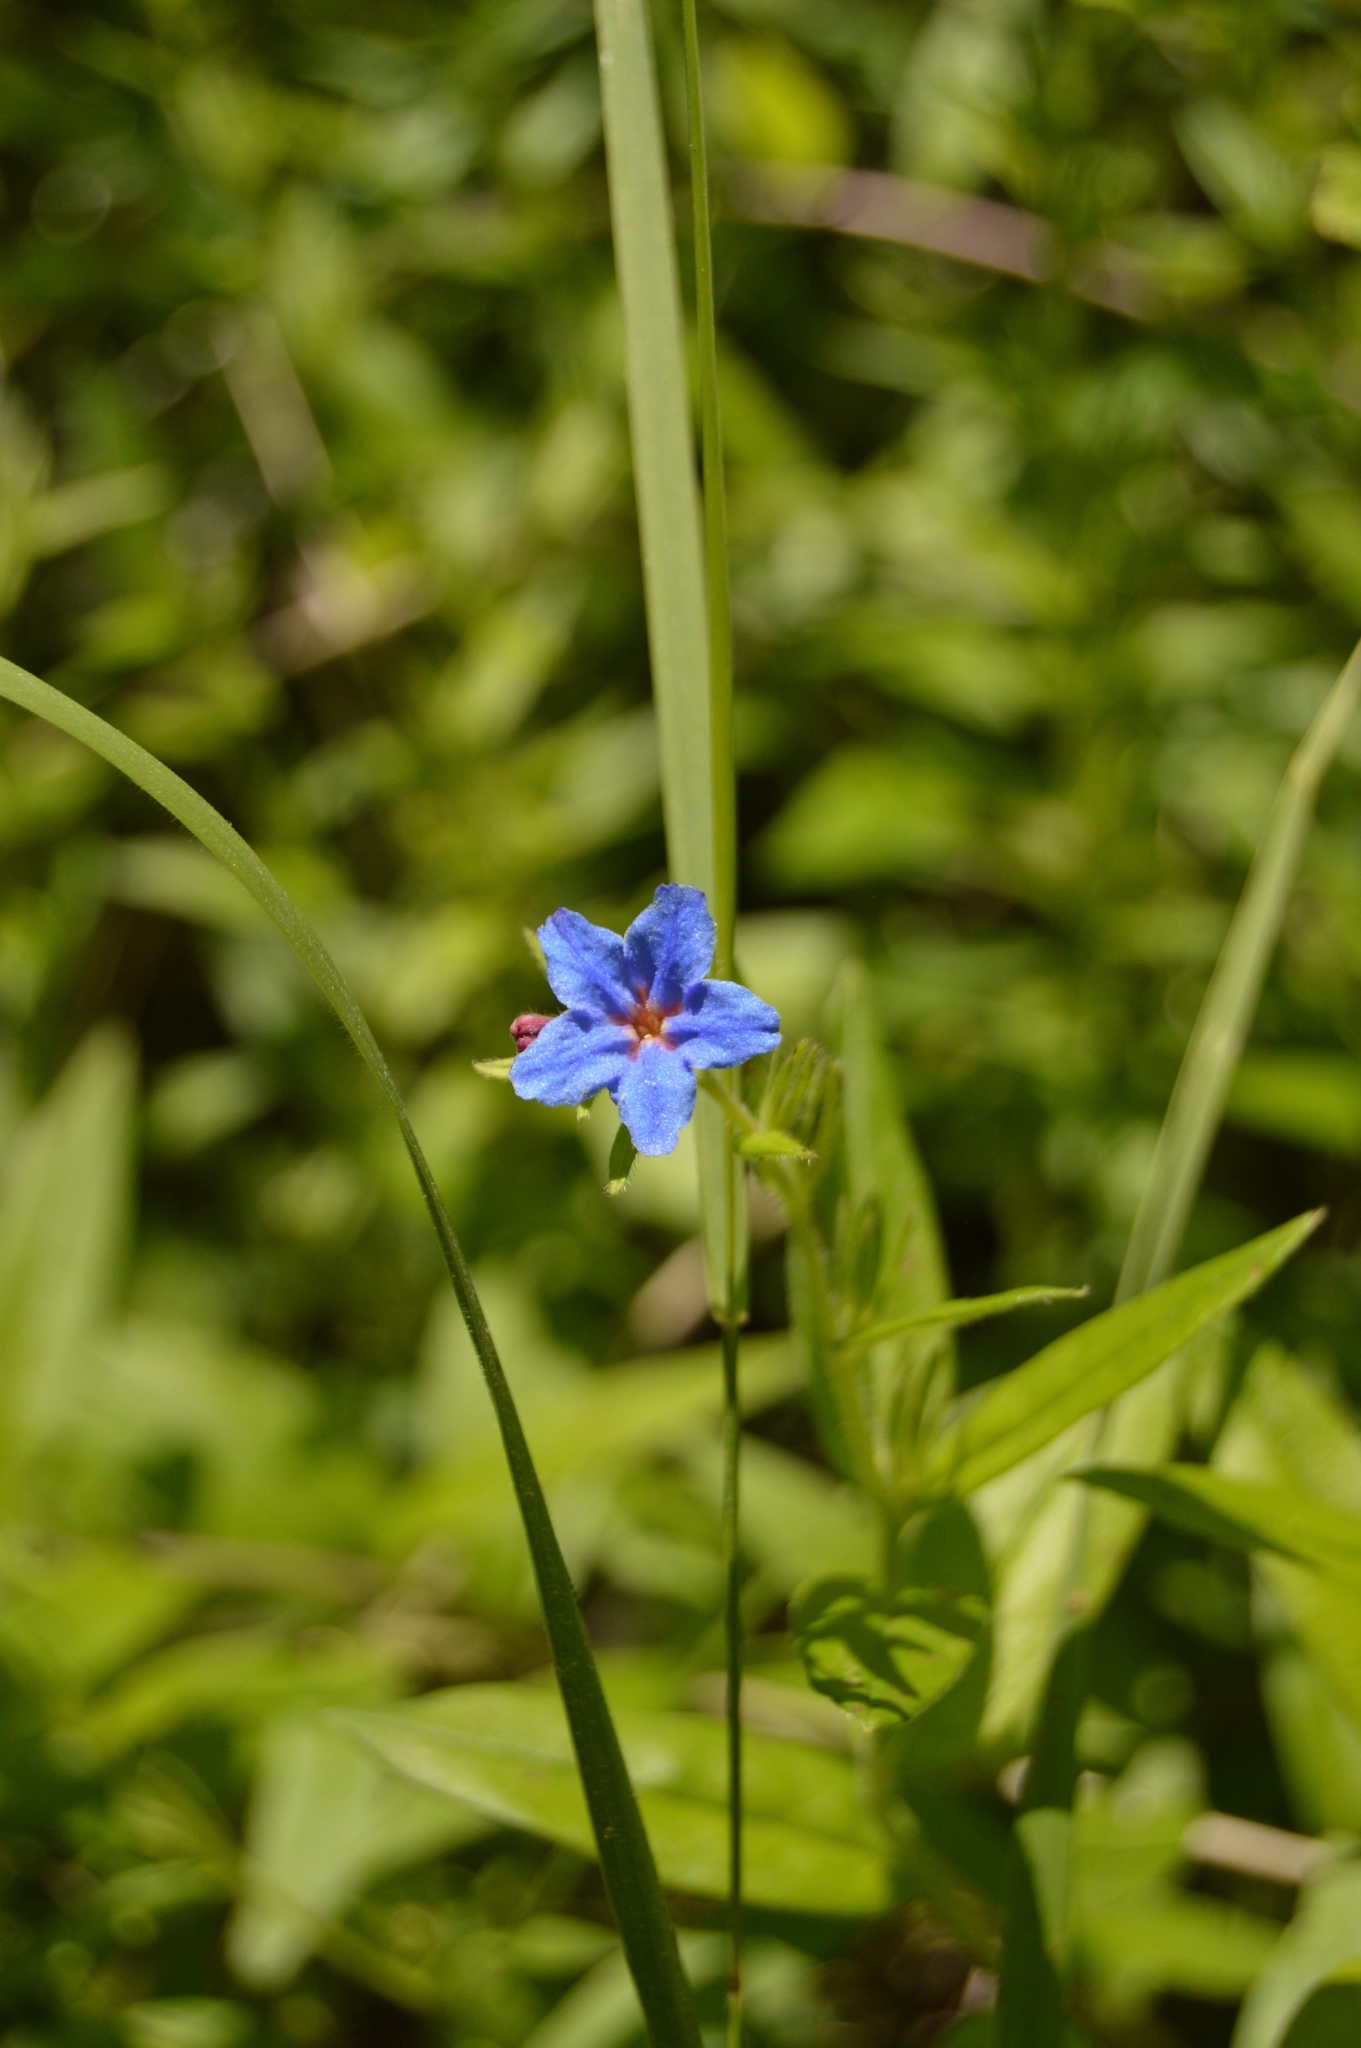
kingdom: Plantae
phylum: Tracheophyta
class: Magnoliopsida
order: Boraginales
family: Boraginaceae
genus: Aegonychon
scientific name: Aegonychon purpurocaeruleum
